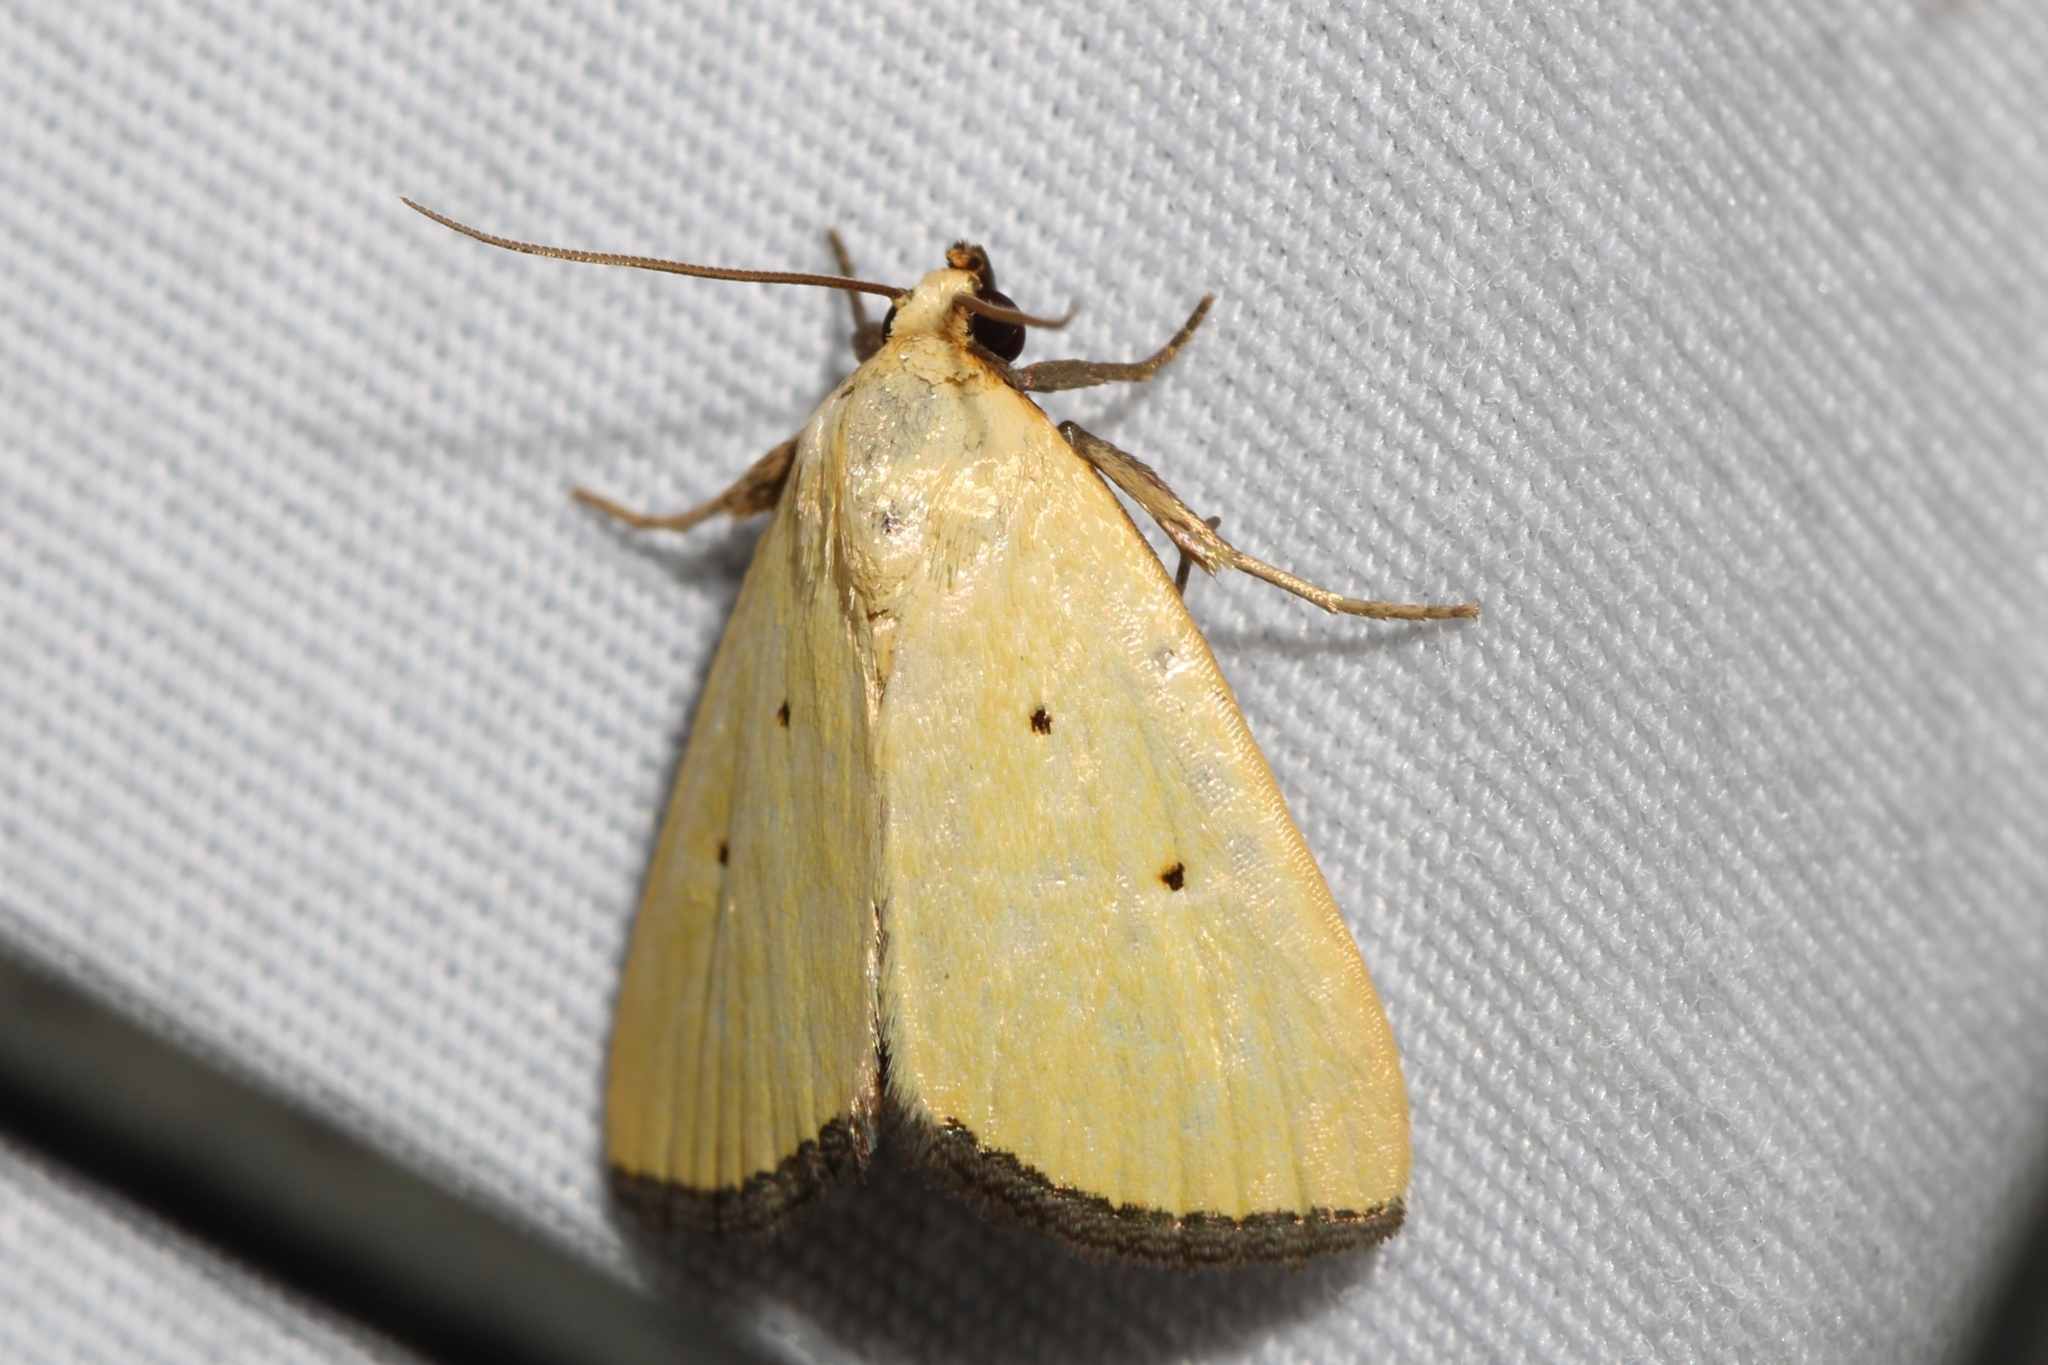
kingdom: Animalia
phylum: Arthropoda
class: Insecta
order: Lepidoptera
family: Noctuidae
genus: Marimatha
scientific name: Marimatha nigrofimbria
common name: Black-bordered lemon moth
